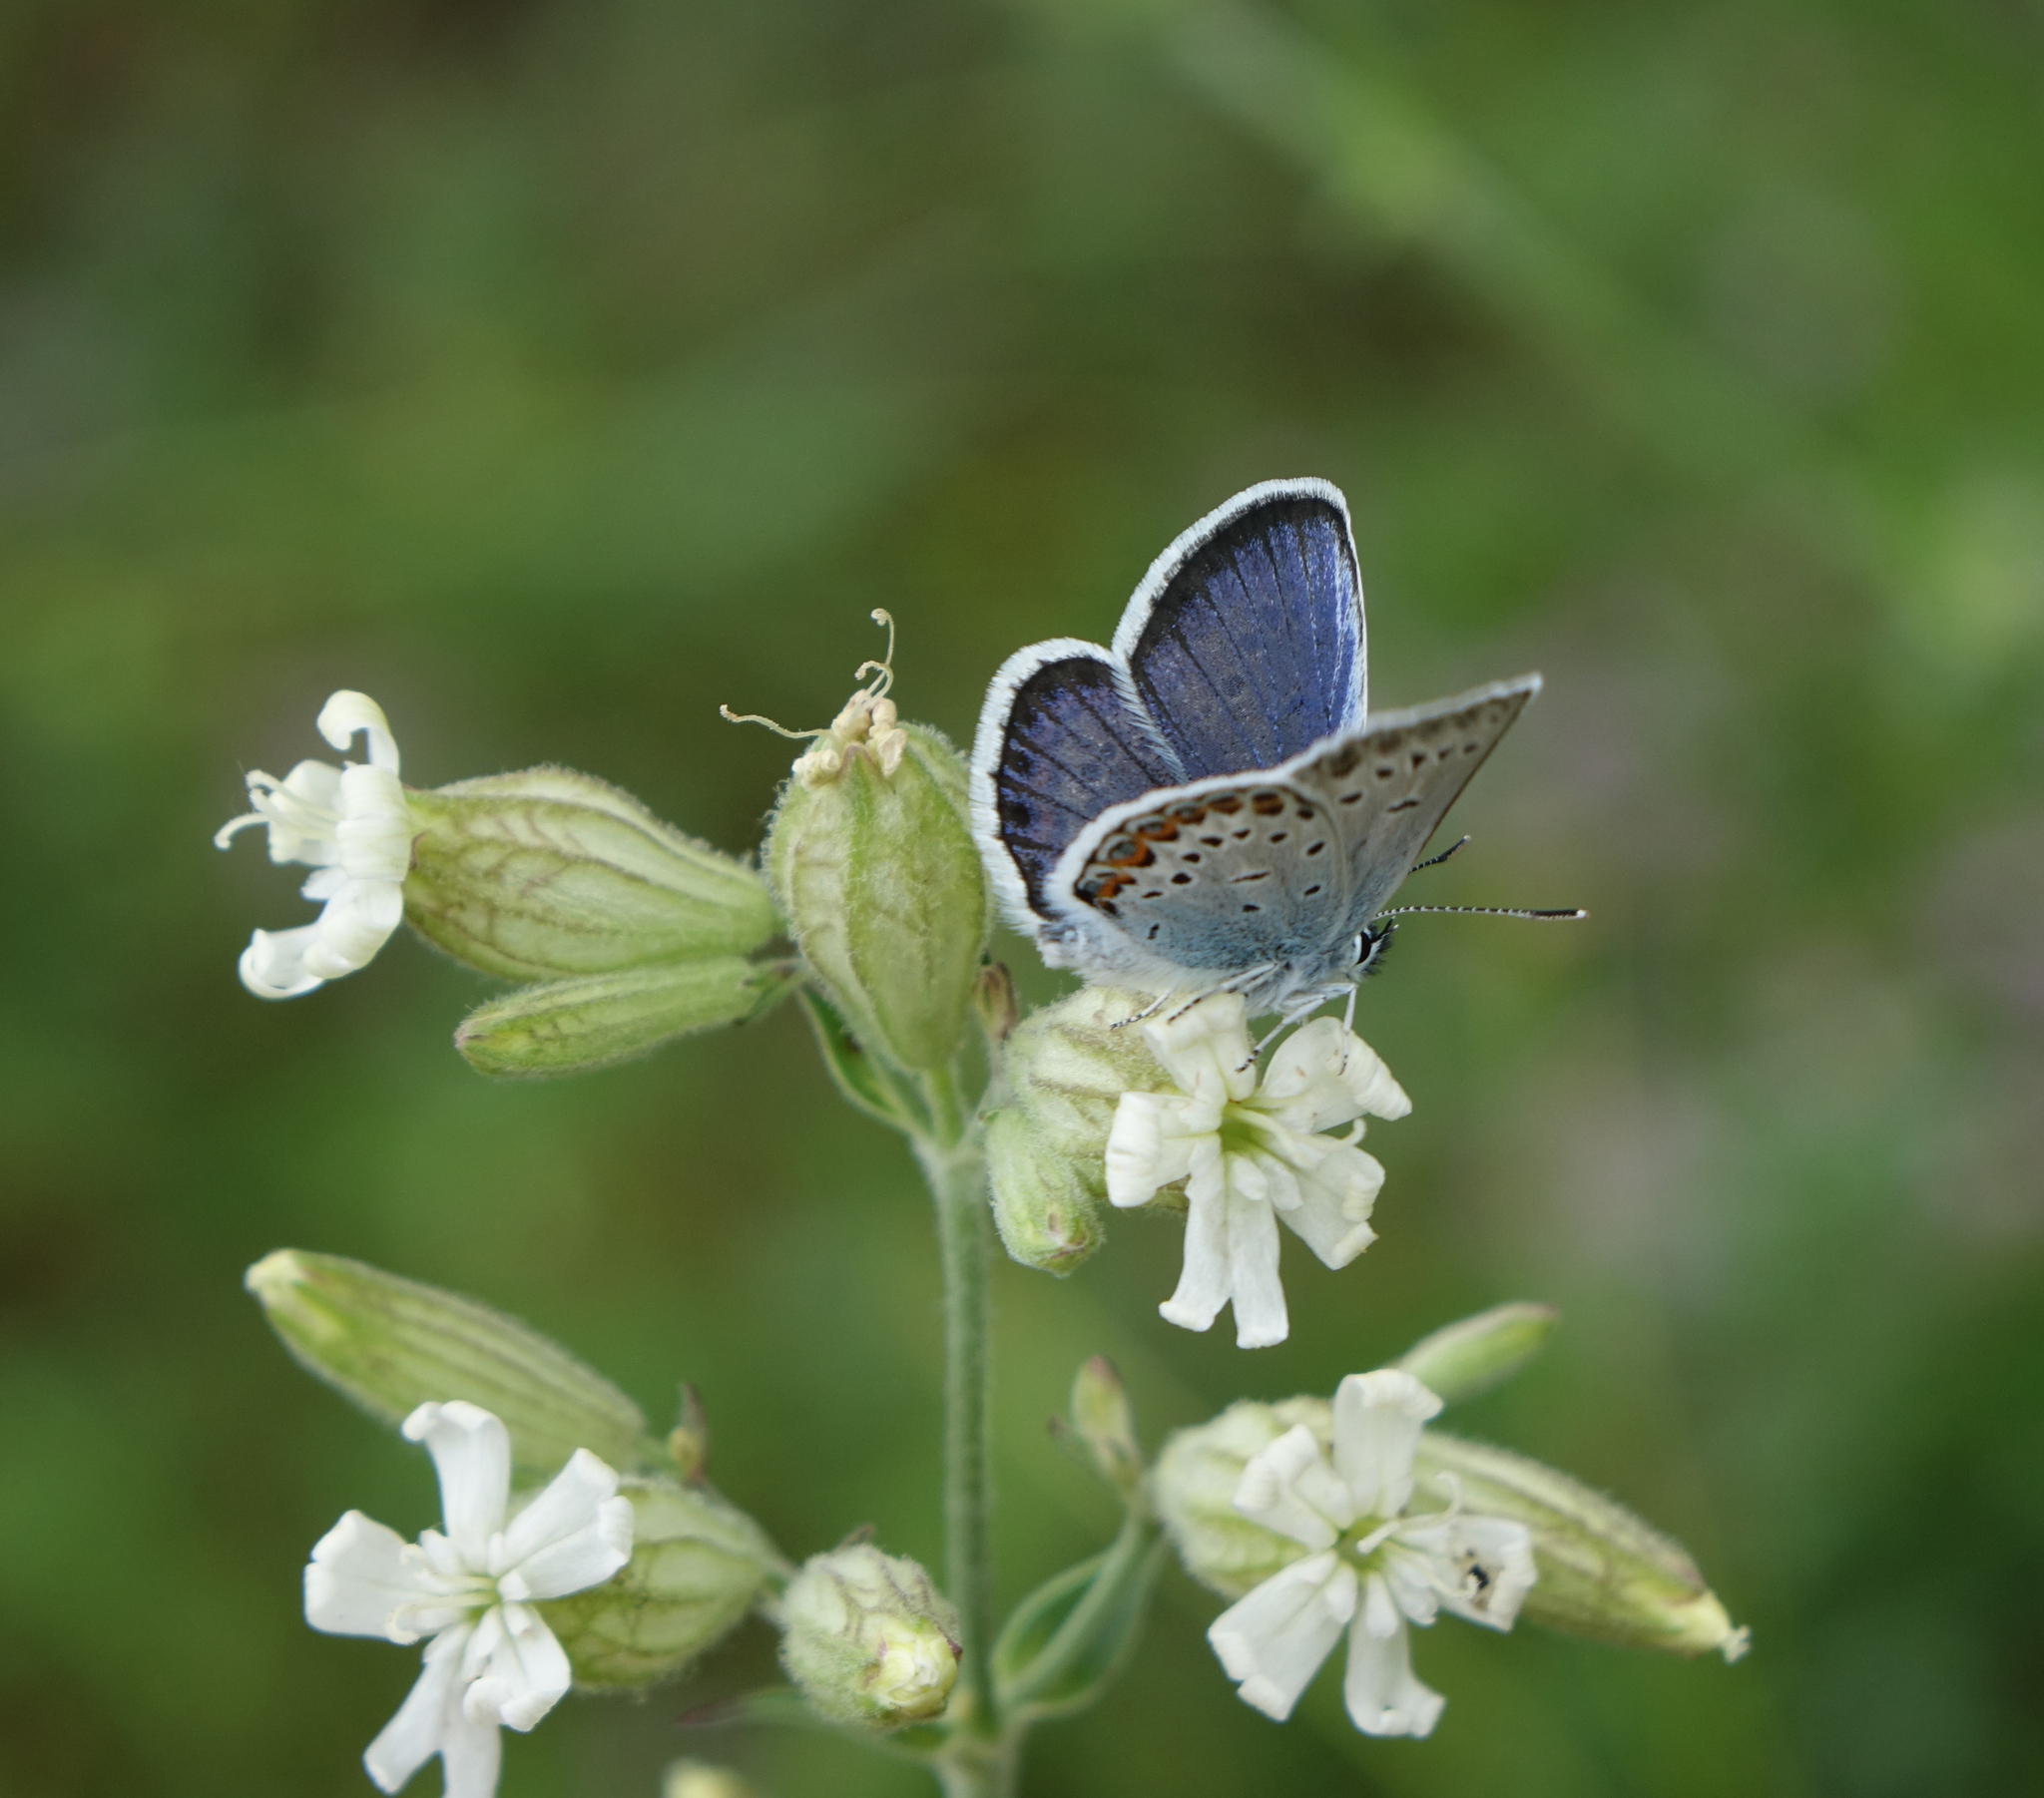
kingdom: Animalia
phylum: Arthropoda
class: Insecta
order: Lepidoptera
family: Lycaenidae
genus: Plebejus
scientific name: Plebejus argus
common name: Silver-studded blue
